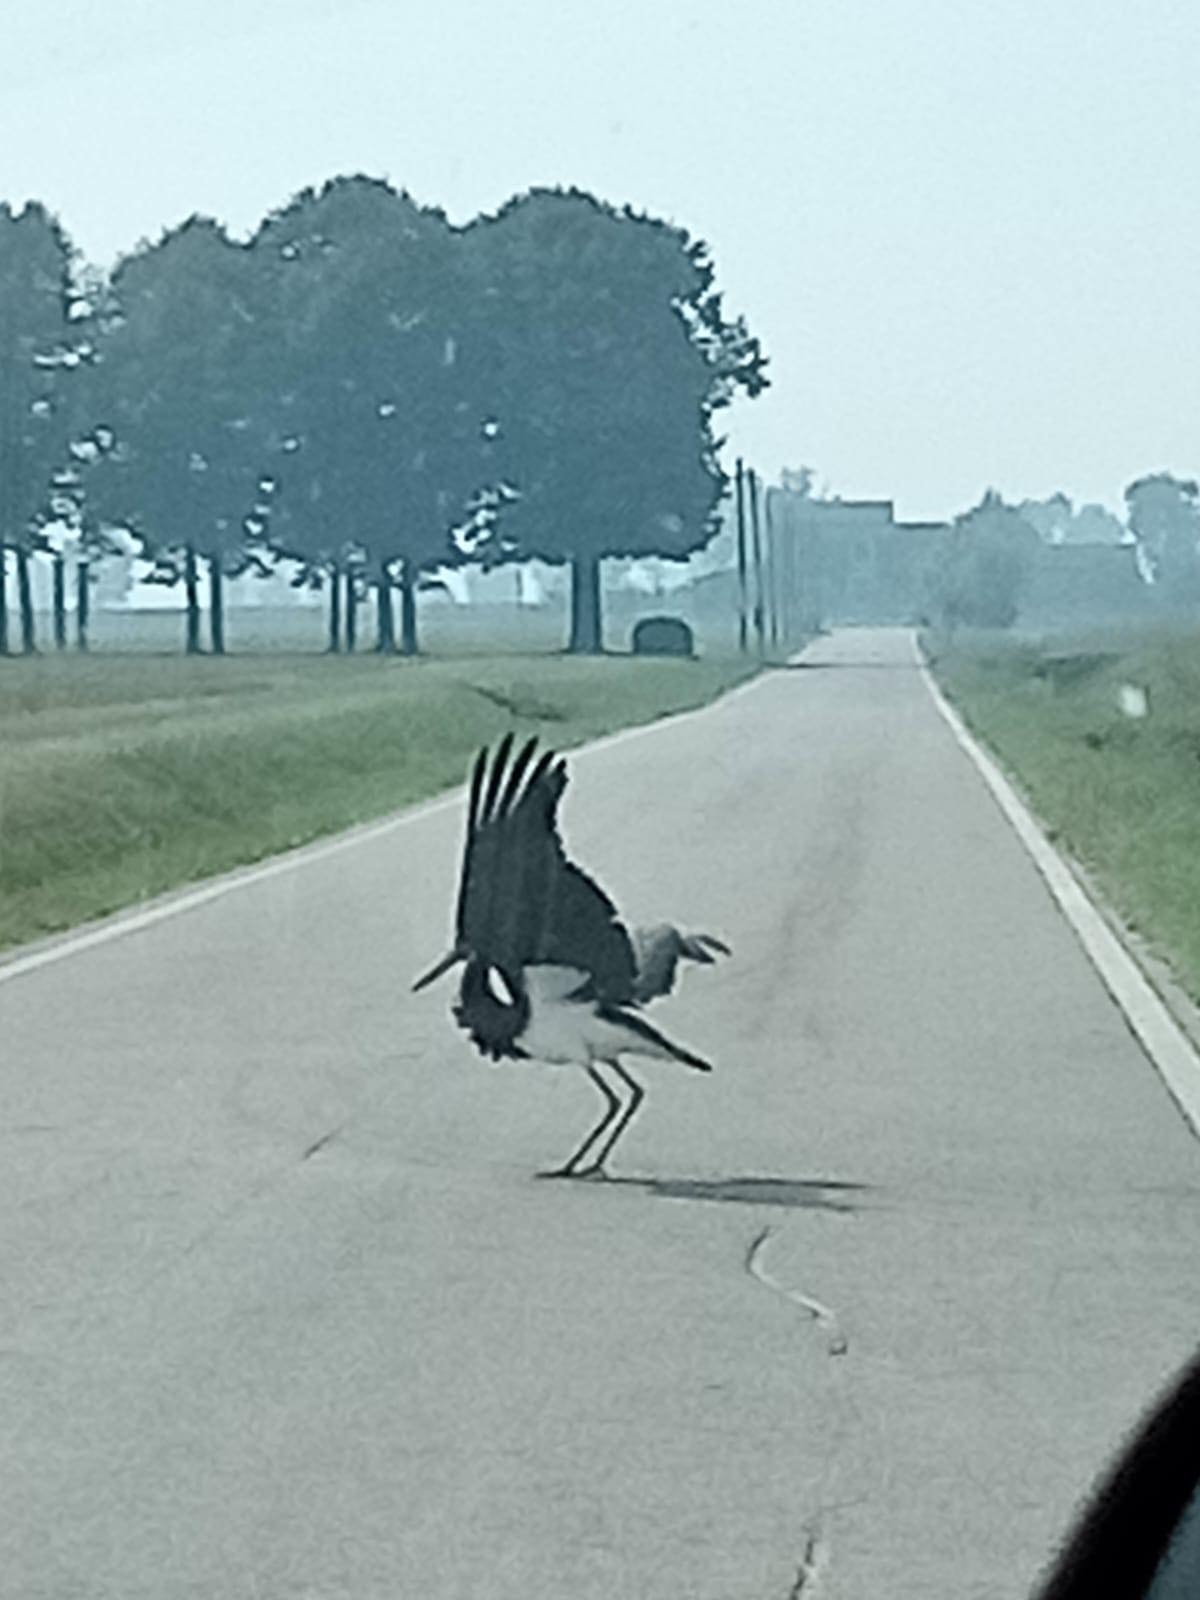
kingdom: Animalia
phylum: Chordata
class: Aves
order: Ciconiiformes
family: Ciconiidae
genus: Ciconia
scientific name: Ciconia nigra
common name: Black stork
